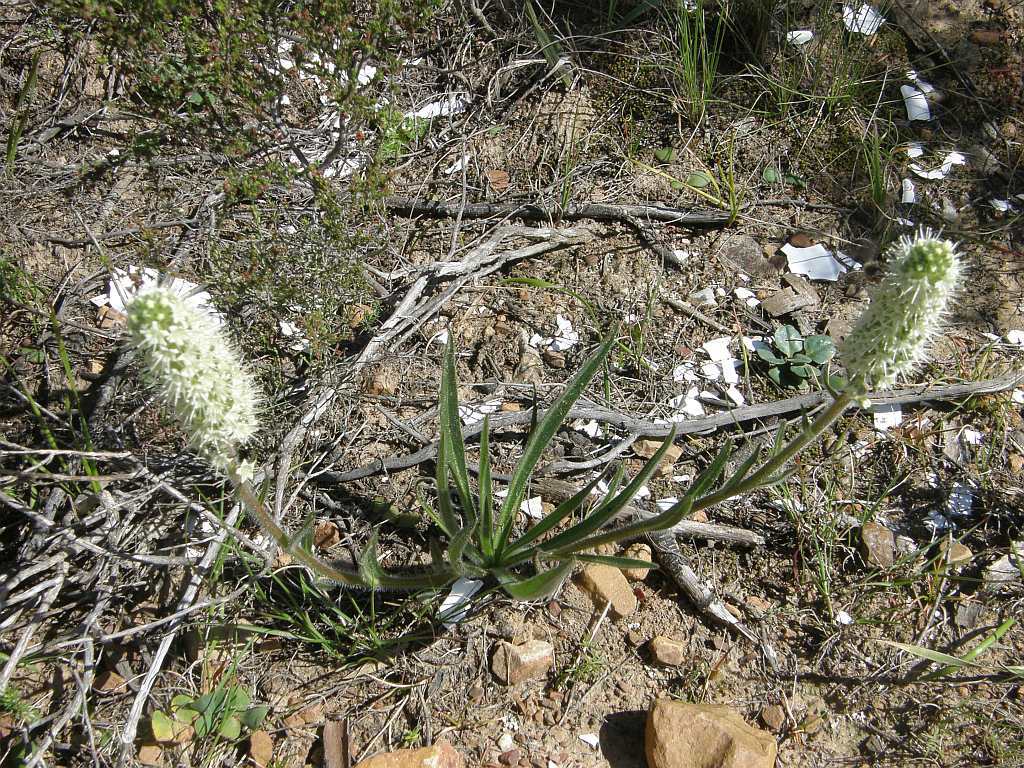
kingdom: Plantae
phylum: Tracheophyta
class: Magnoliopsida
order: Boraginales
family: Boraginaceae
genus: Lobostemon
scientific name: Lobostemon splendens
